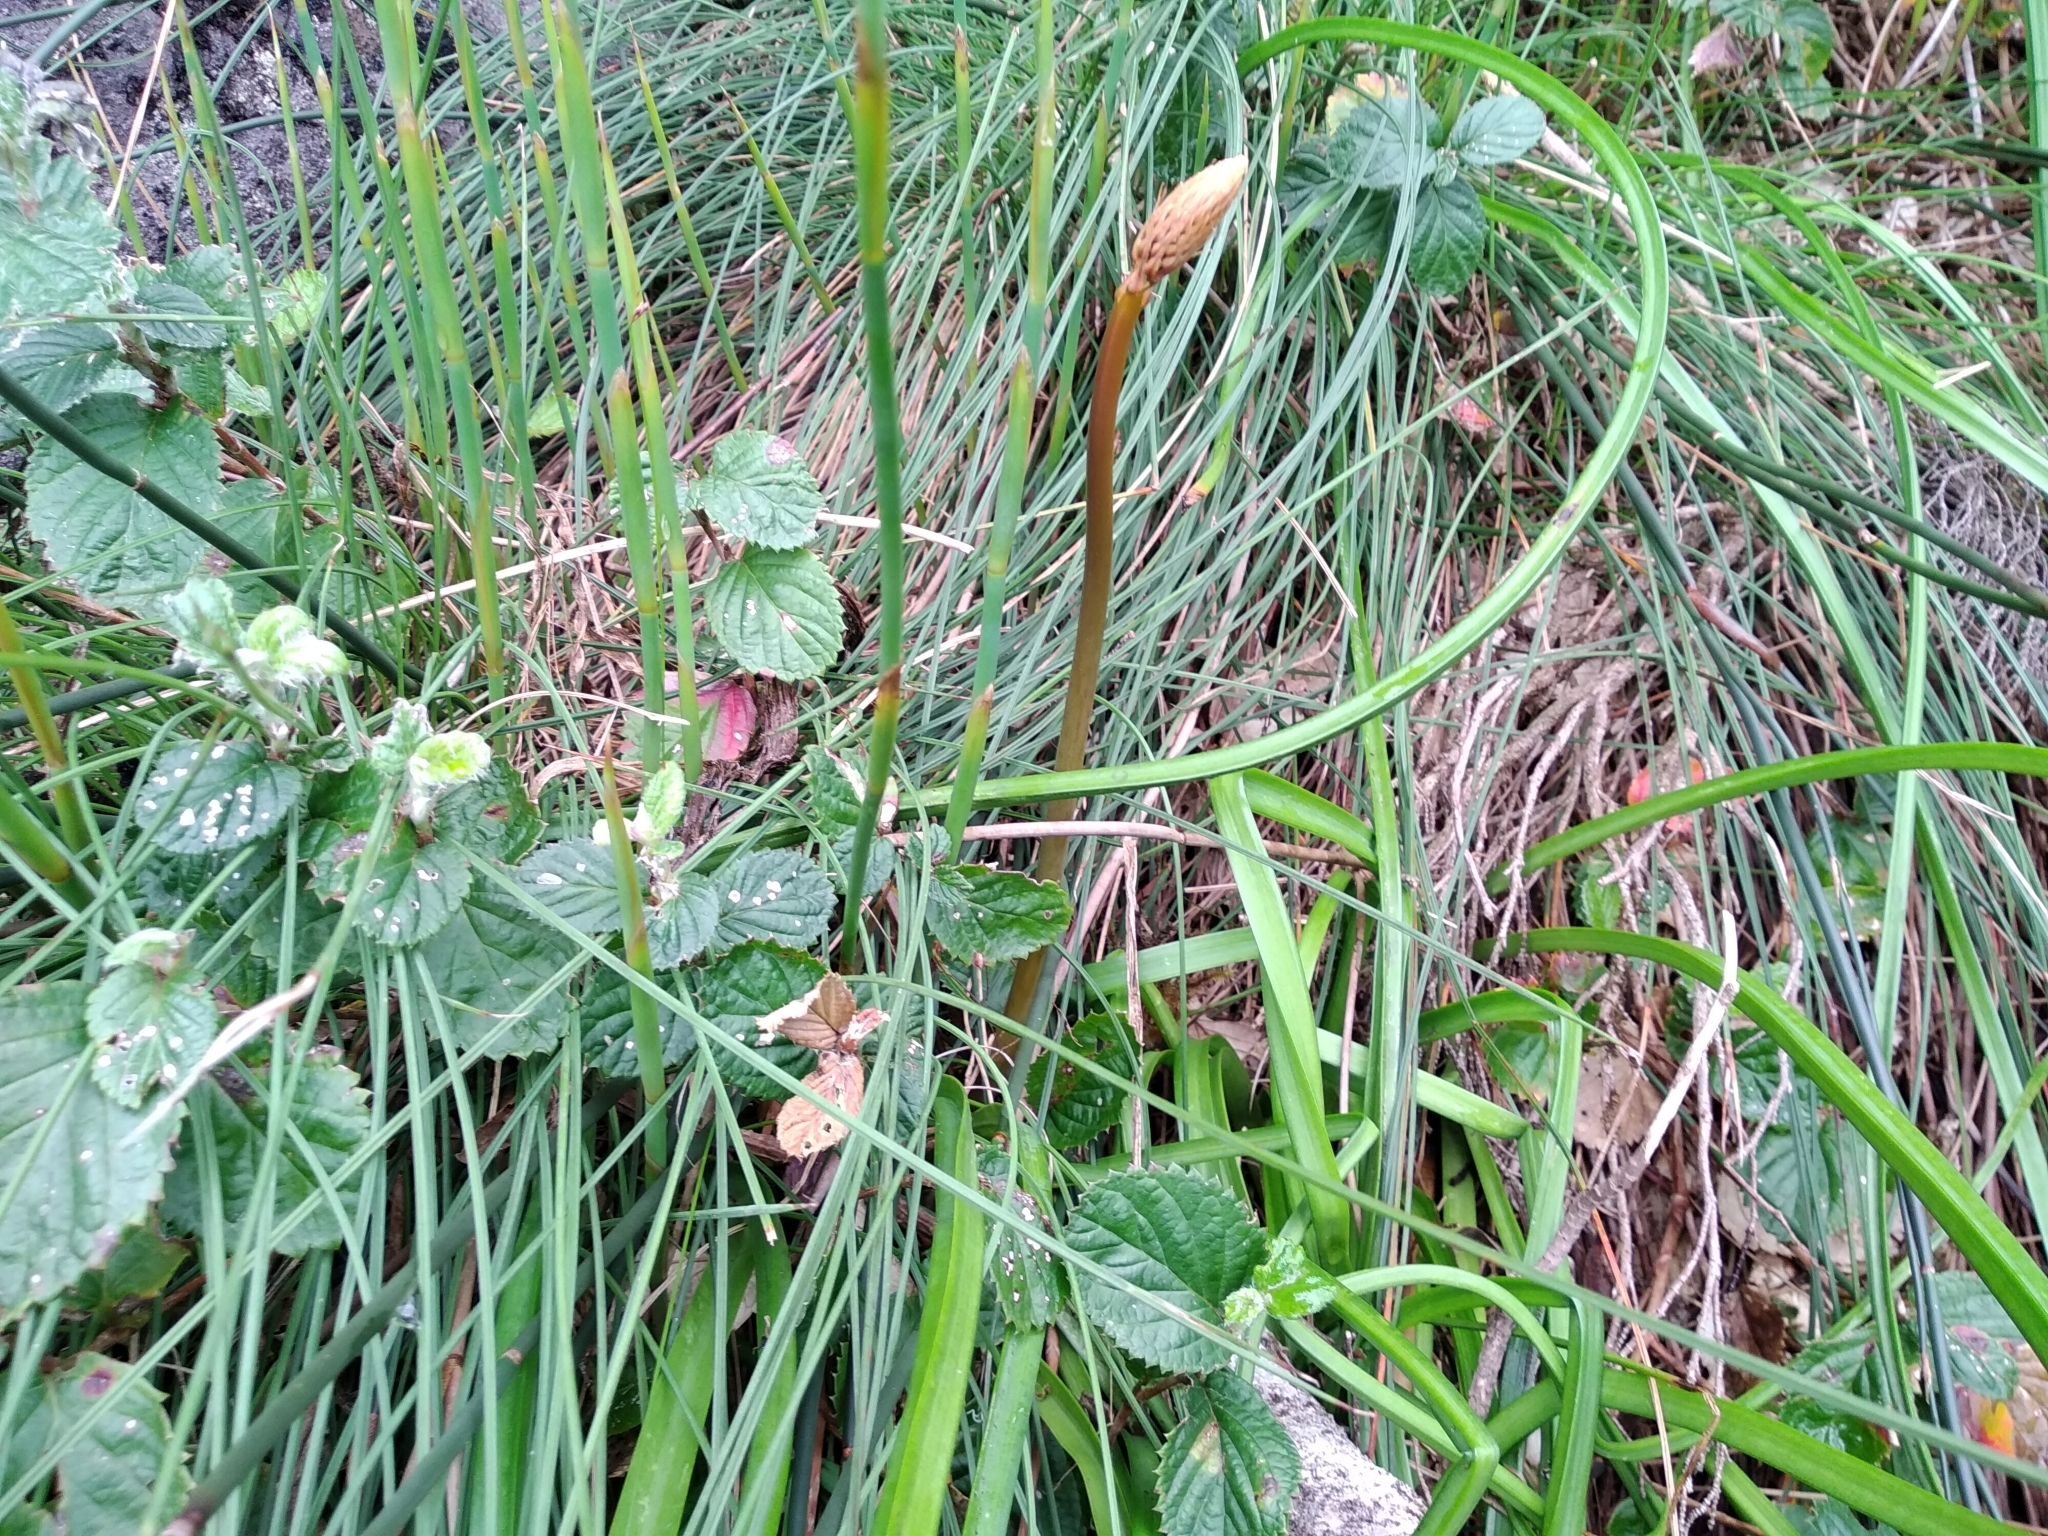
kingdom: Plantae
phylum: Tracheophyta
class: Liliopsida
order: Asparagales
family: Asphodelaceae
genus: Kniphofia
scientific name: Kniphofia tabularis
